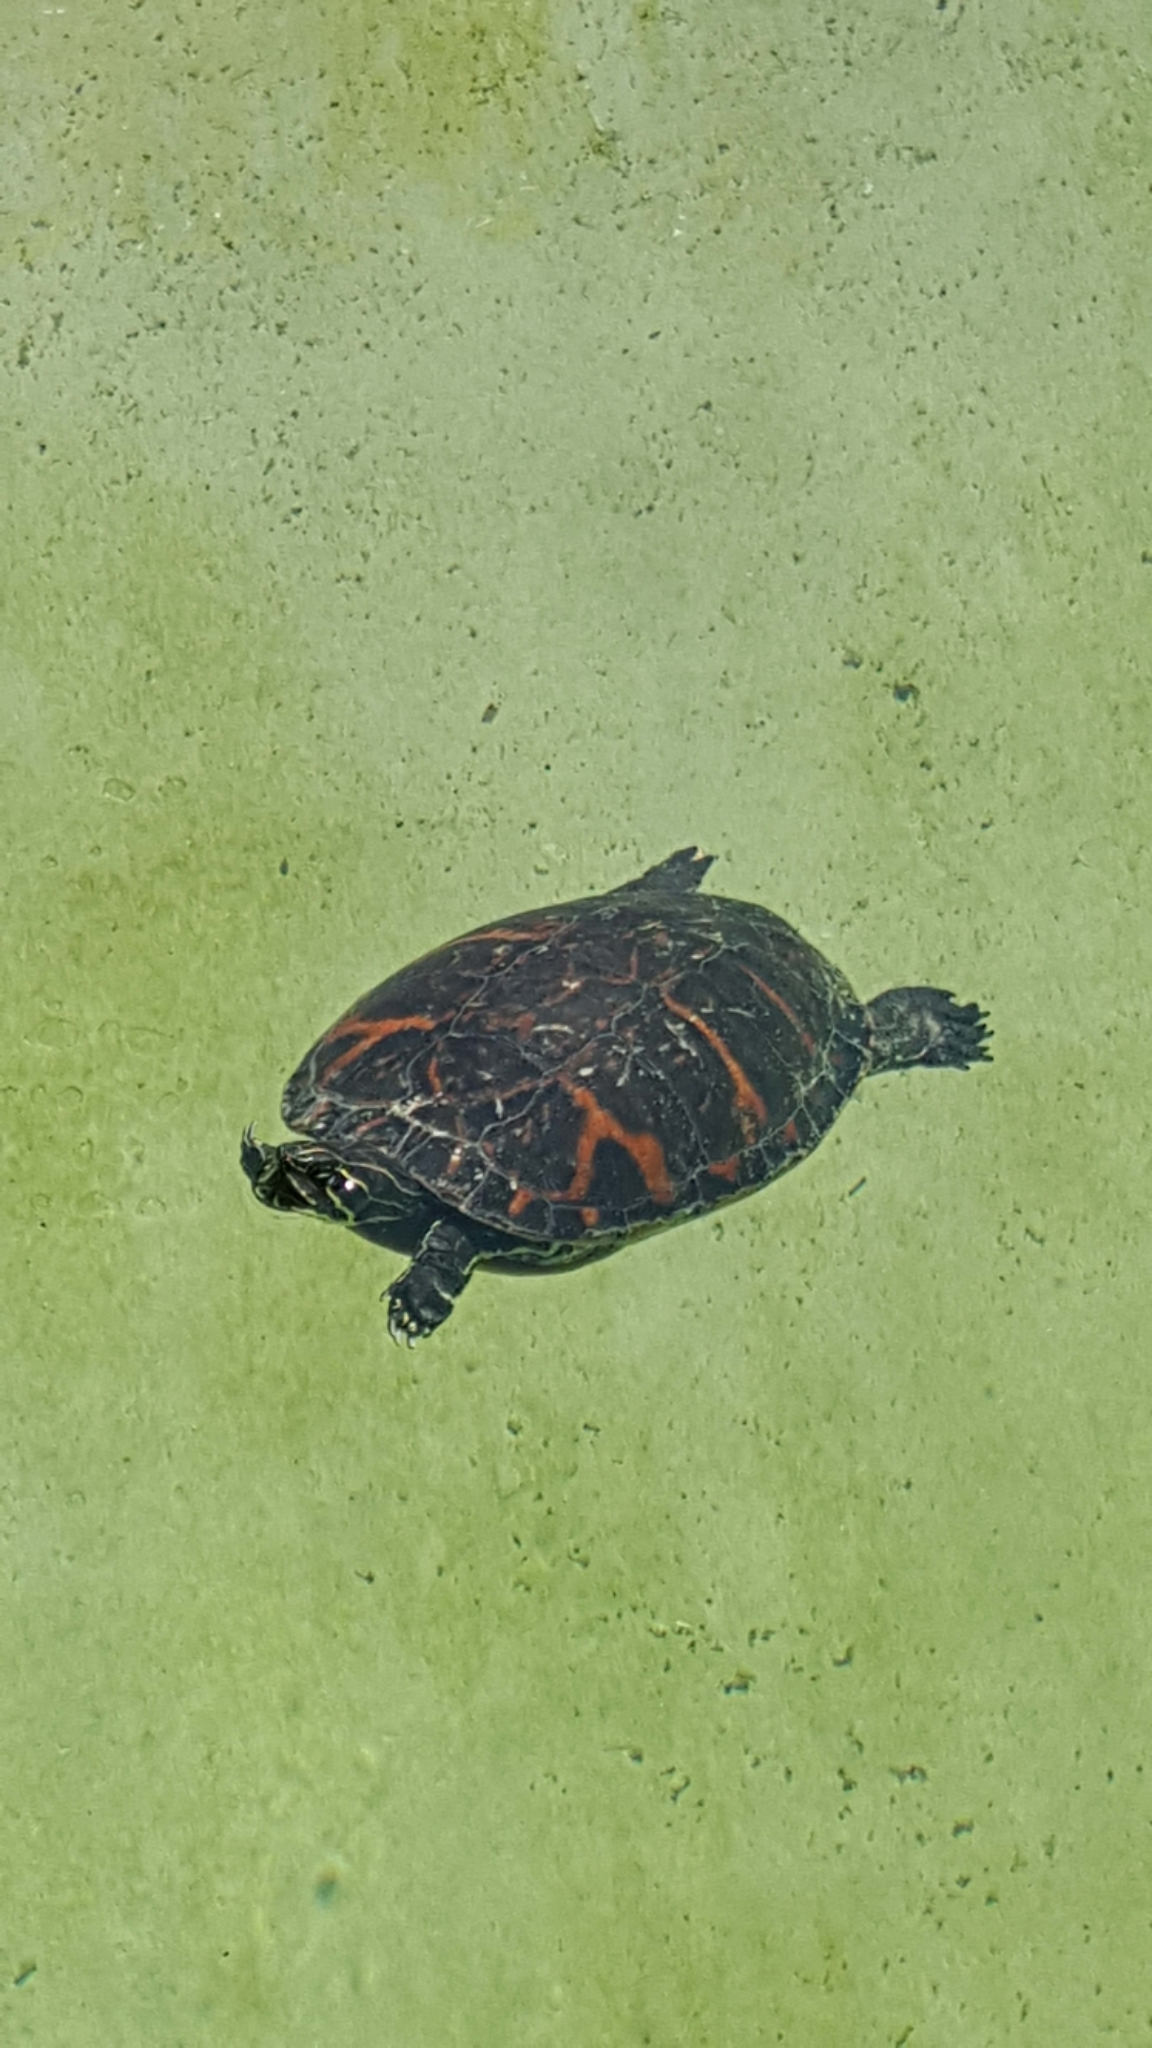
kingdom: Animalia
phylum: Chordata
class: Testudines
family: Emydidae
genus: Pseudemys
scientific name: Pseudemys nelsoni
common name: Florida red-bellied turtle
